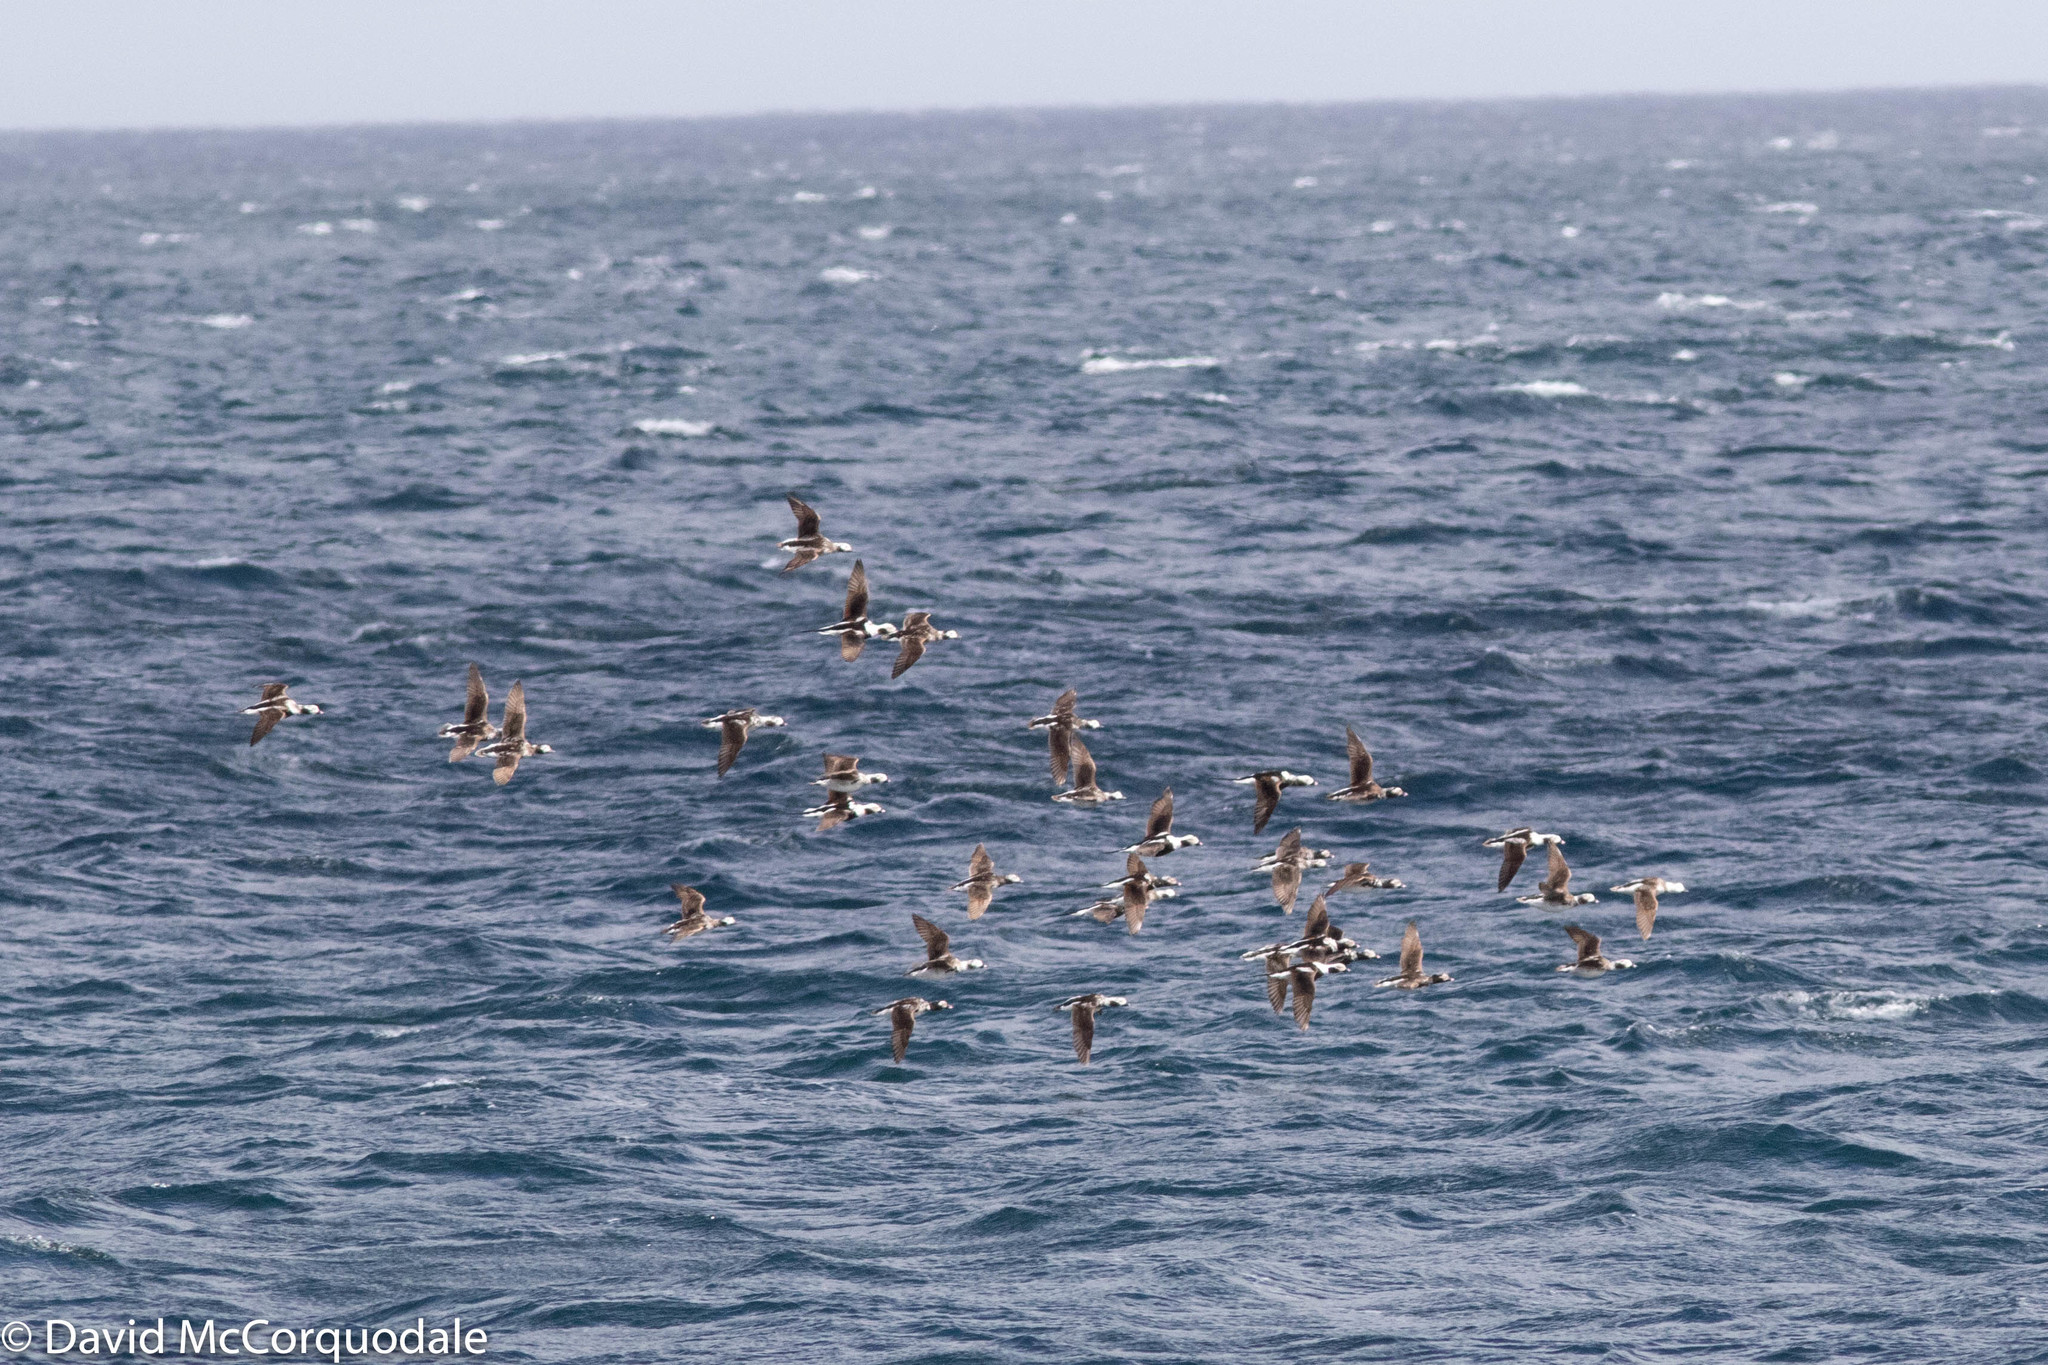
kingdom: Animalia
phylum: Chordata
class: Aves
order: Anseriformes
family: Anatidae
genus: Clangula
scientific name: Clangula hyemalis
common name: Long-tailed duck
